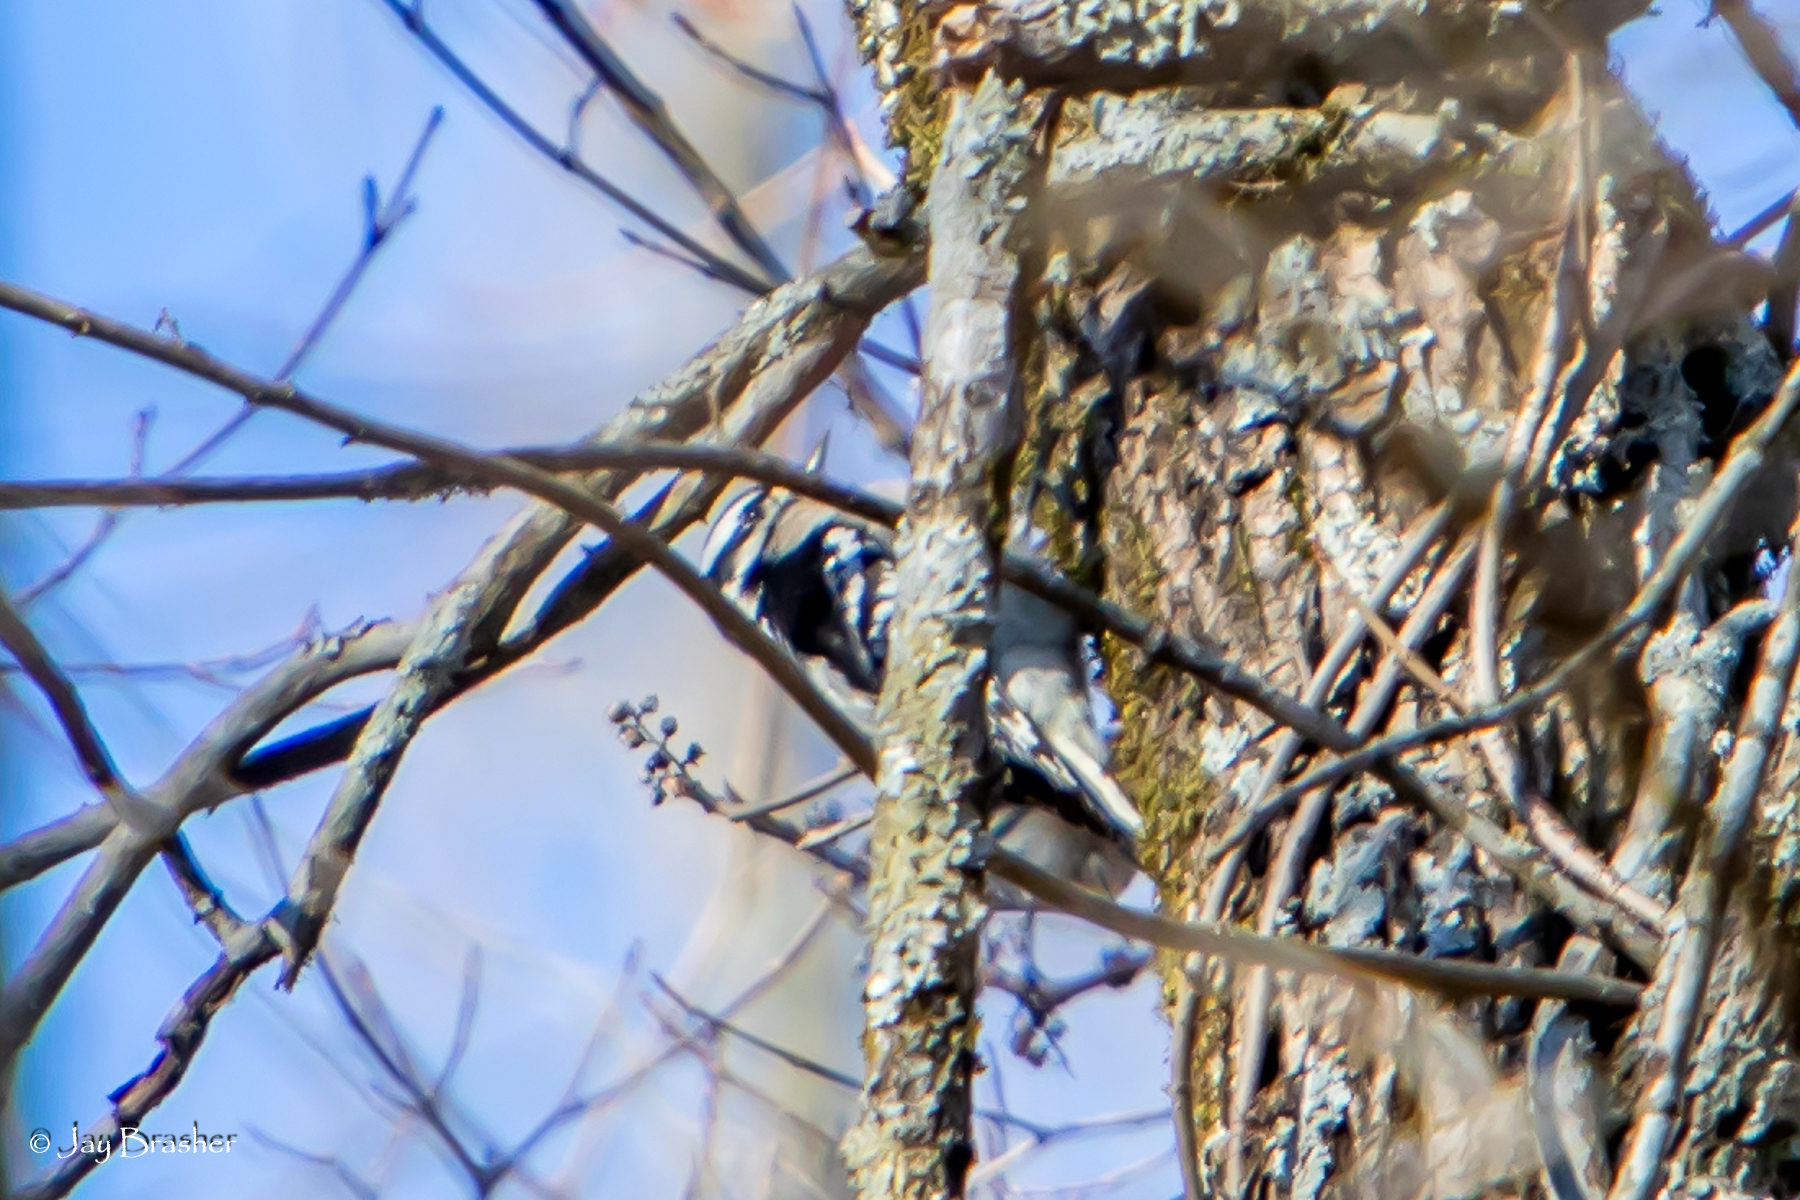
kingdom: Animalia
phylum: Chordata
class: Aves
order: Piciformes
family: Picidae
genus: Dryobates
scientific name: Dryobates pubescens
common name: Downy woodpecker
